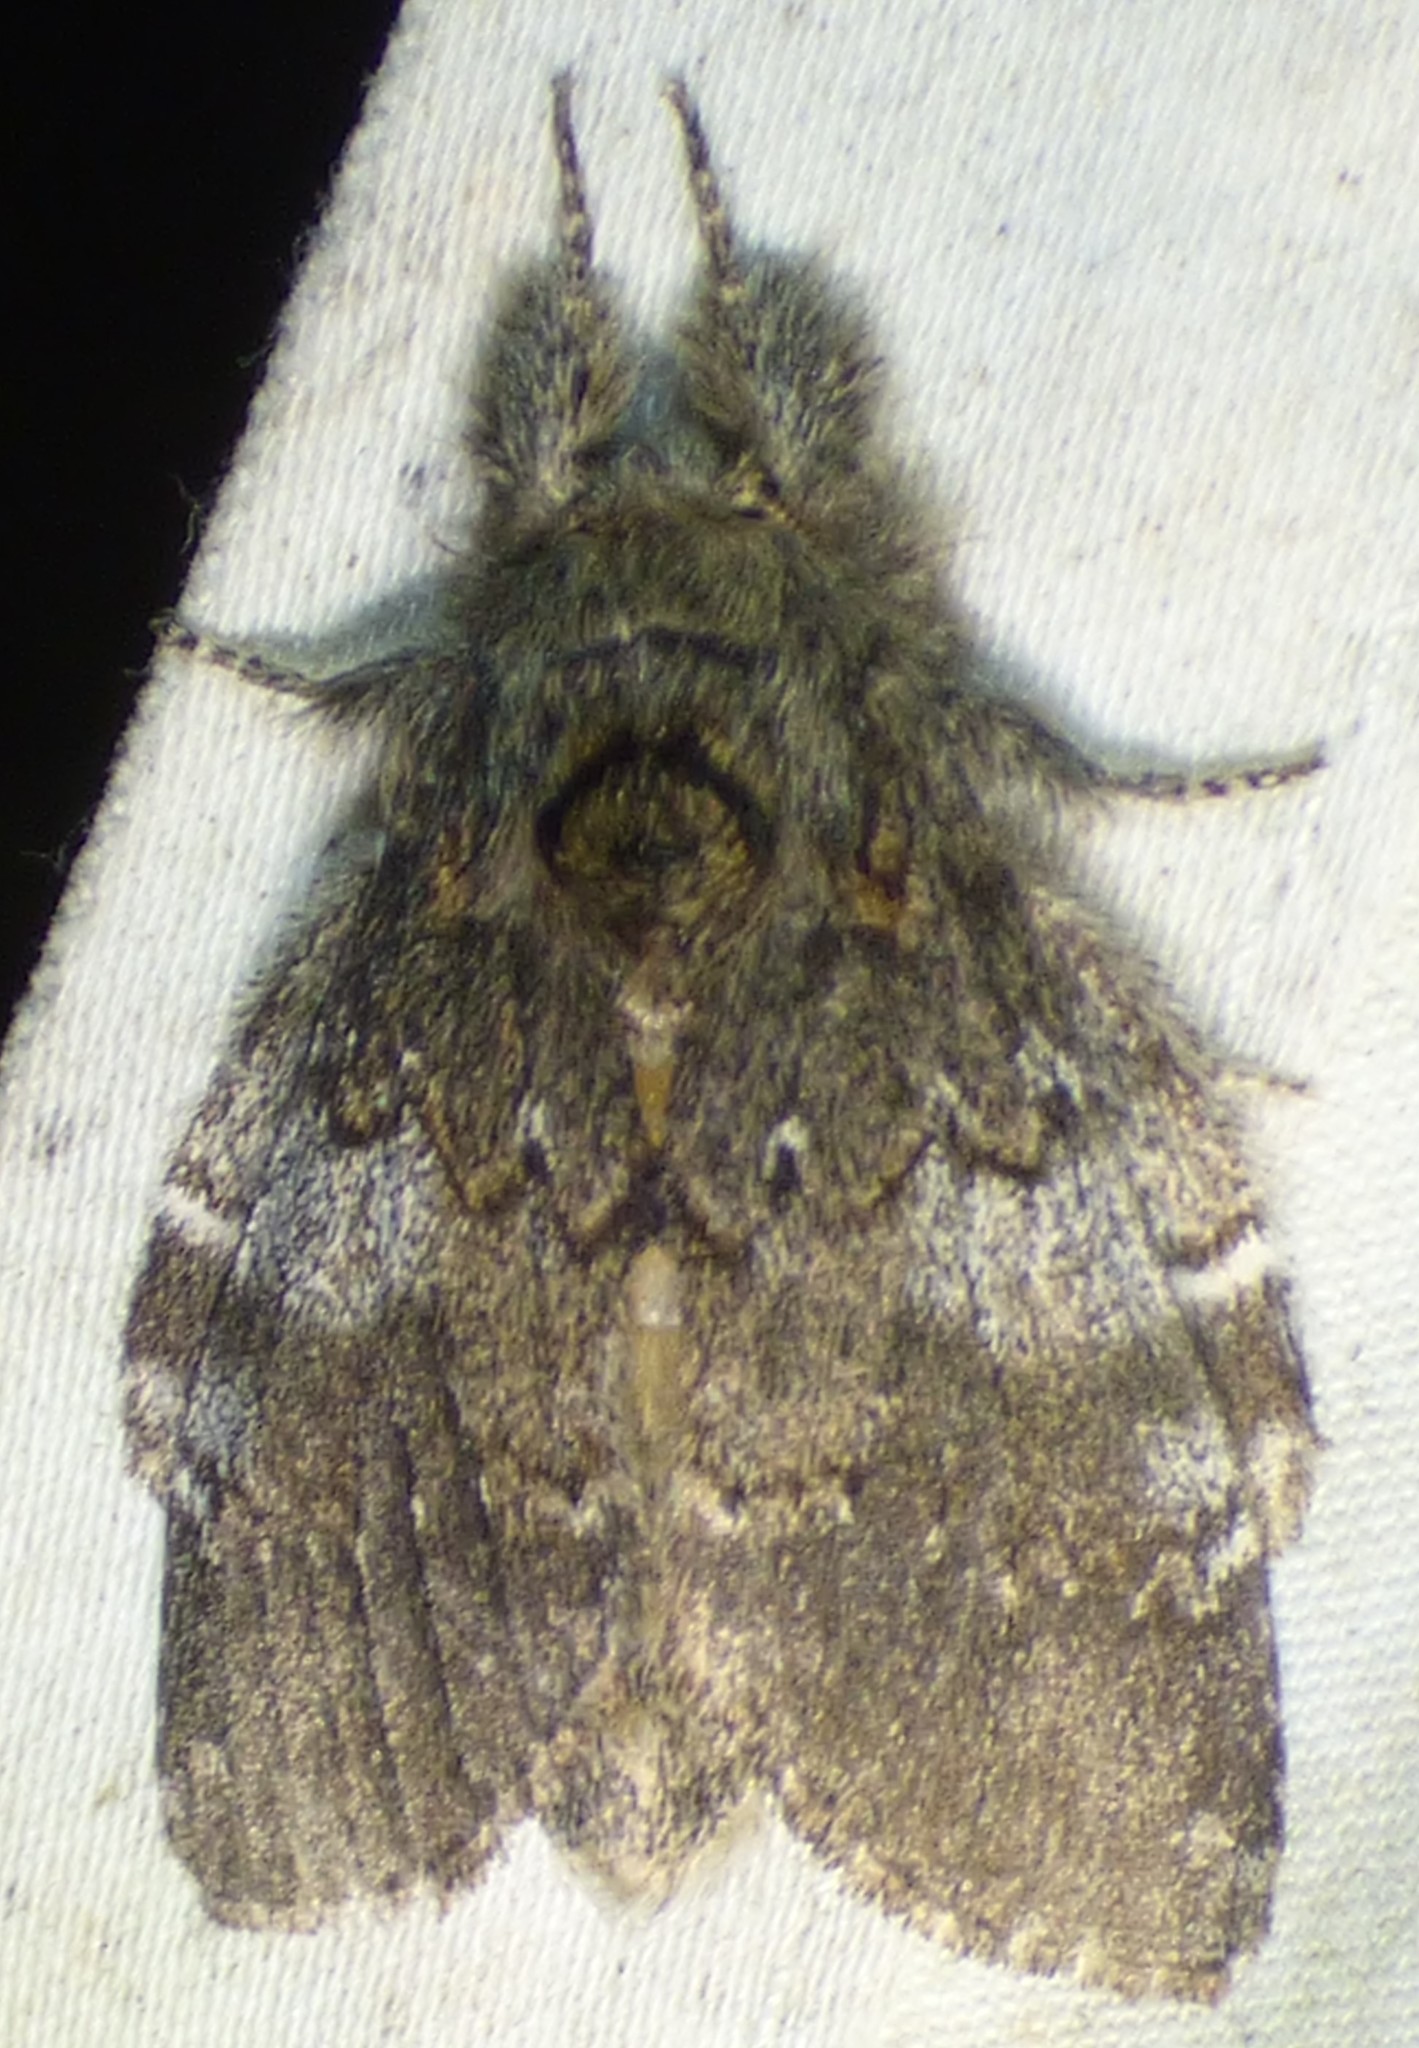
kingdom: Animalia
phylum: Arthropoda
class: Insecta
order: Lepidoptera
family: Notodontidae
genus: Peridea
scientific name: Peridea angulosa
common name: Angulose prominent
